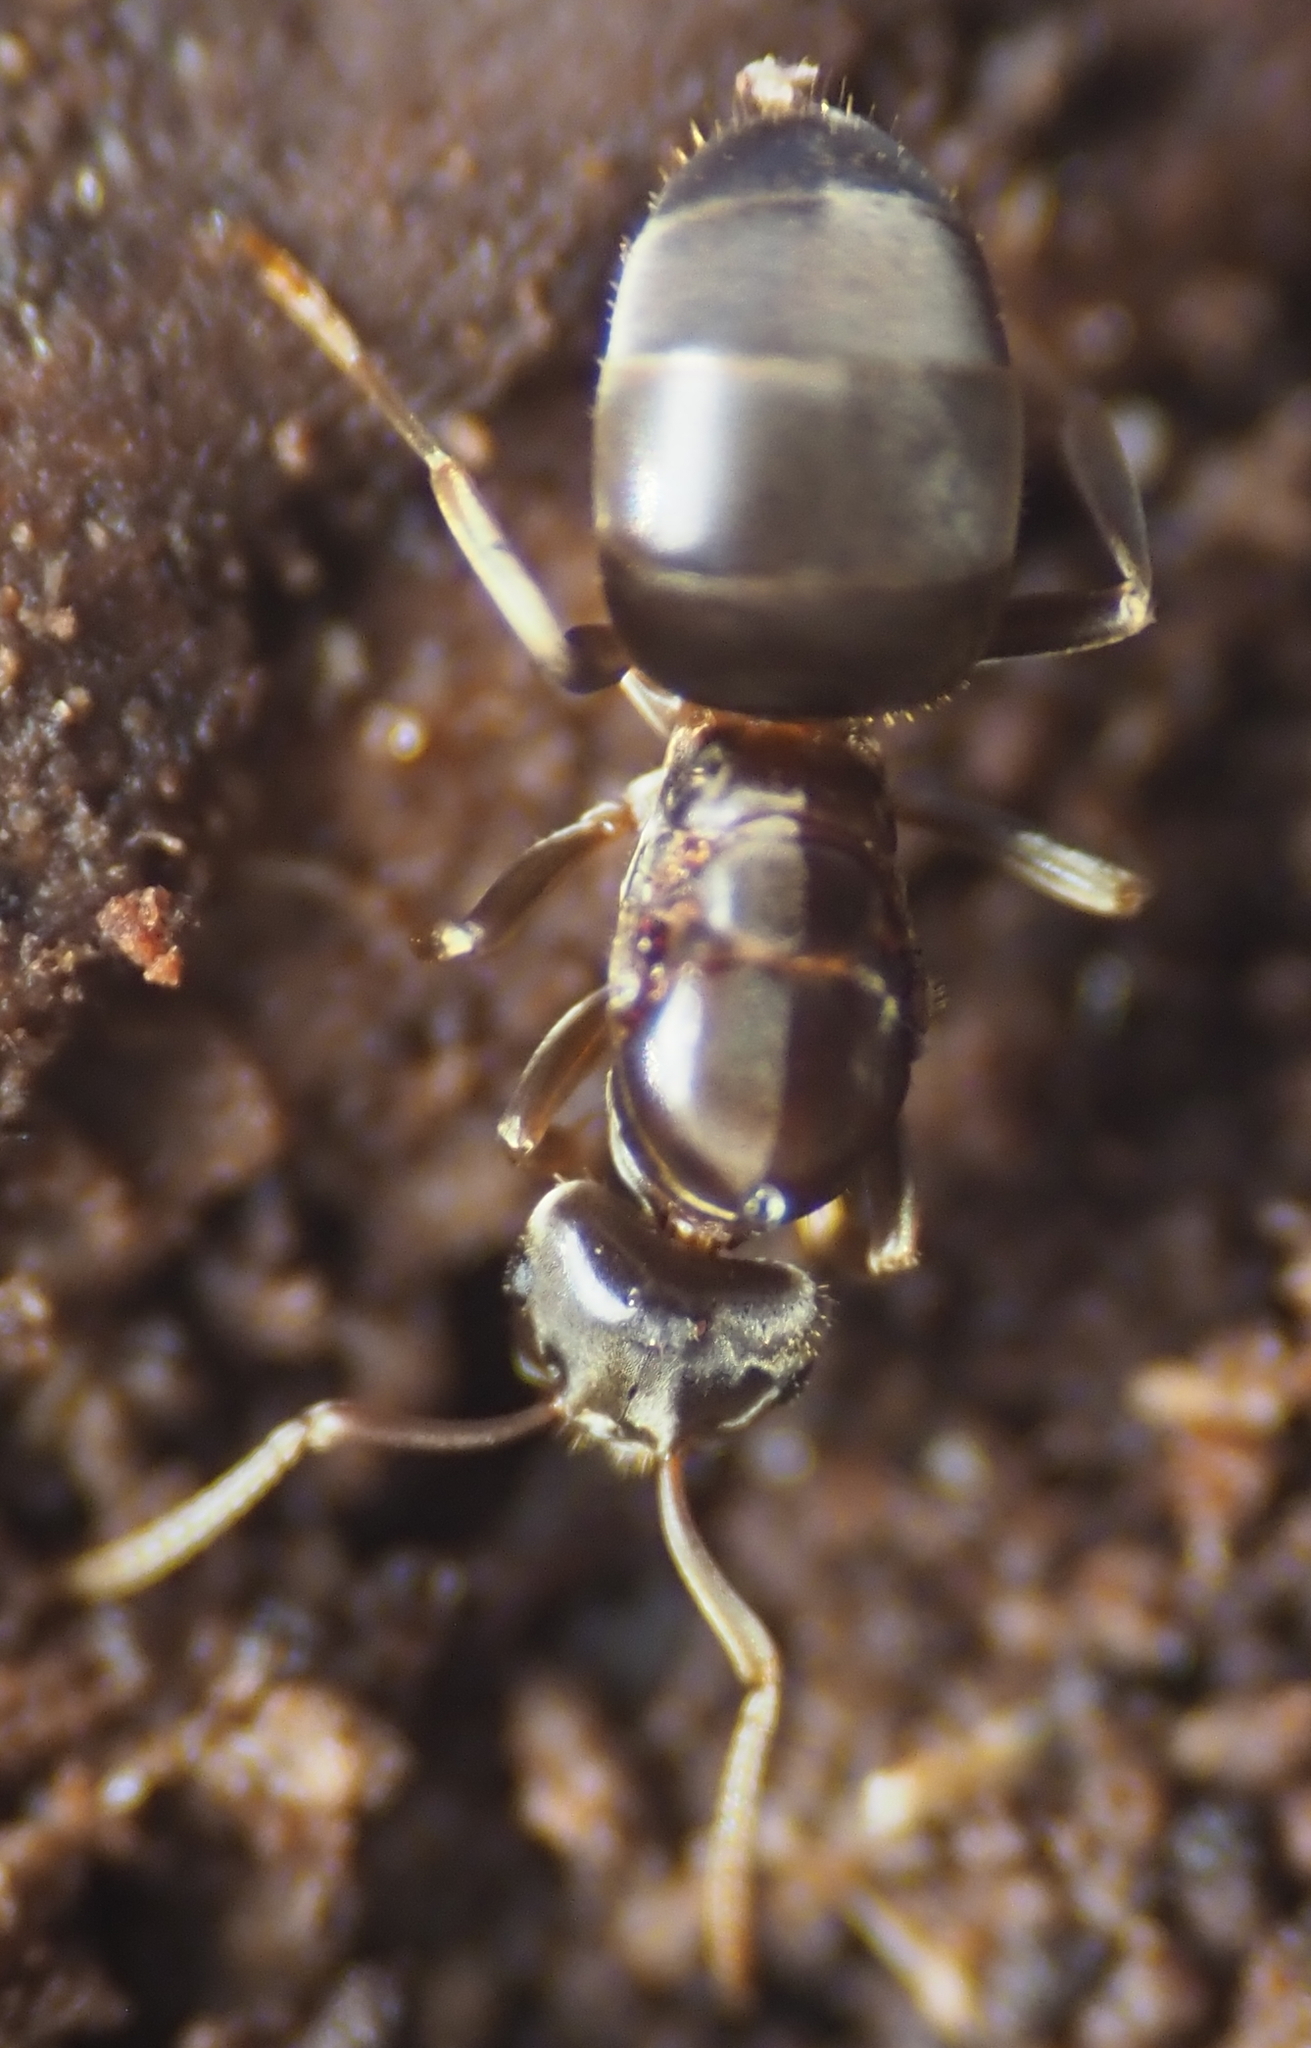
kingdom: Animalia
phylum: Arthropoda
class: Insecta
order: Hymenoptera
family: Formicidae
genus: Lasius
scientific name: Lasius aphidicola
